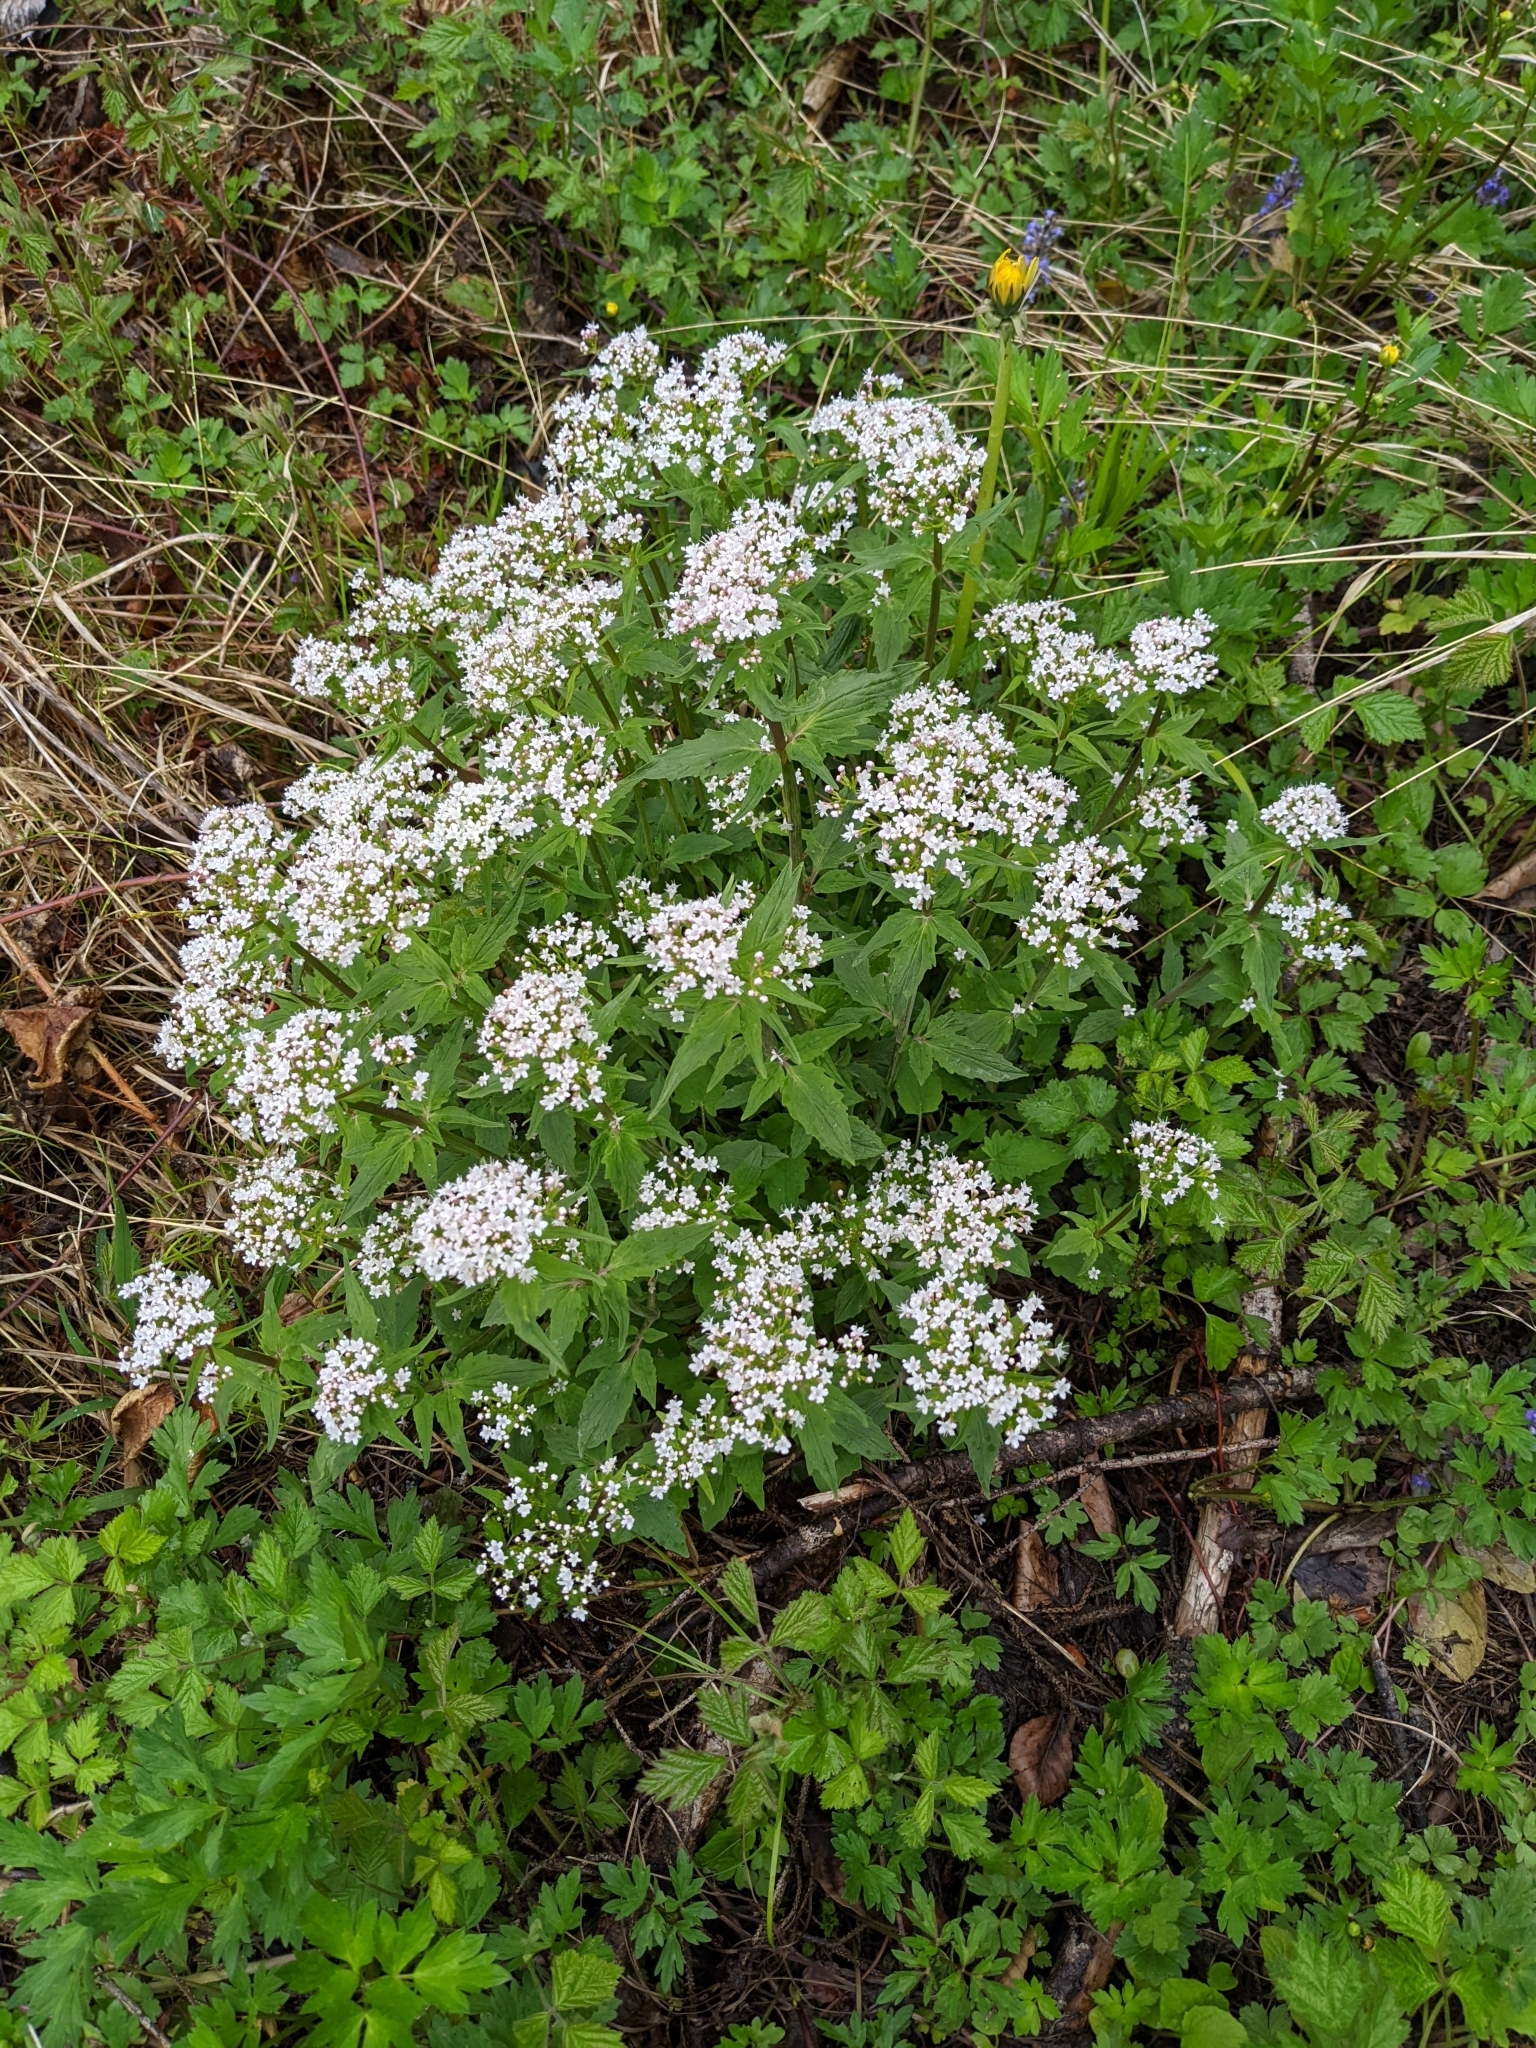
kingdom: Plantae
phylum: Tracheophyta
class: Magnoliopsida
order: Dipsacales
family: Caprifoliaceae
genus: Valeriana
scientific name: Valeriana tripteris
